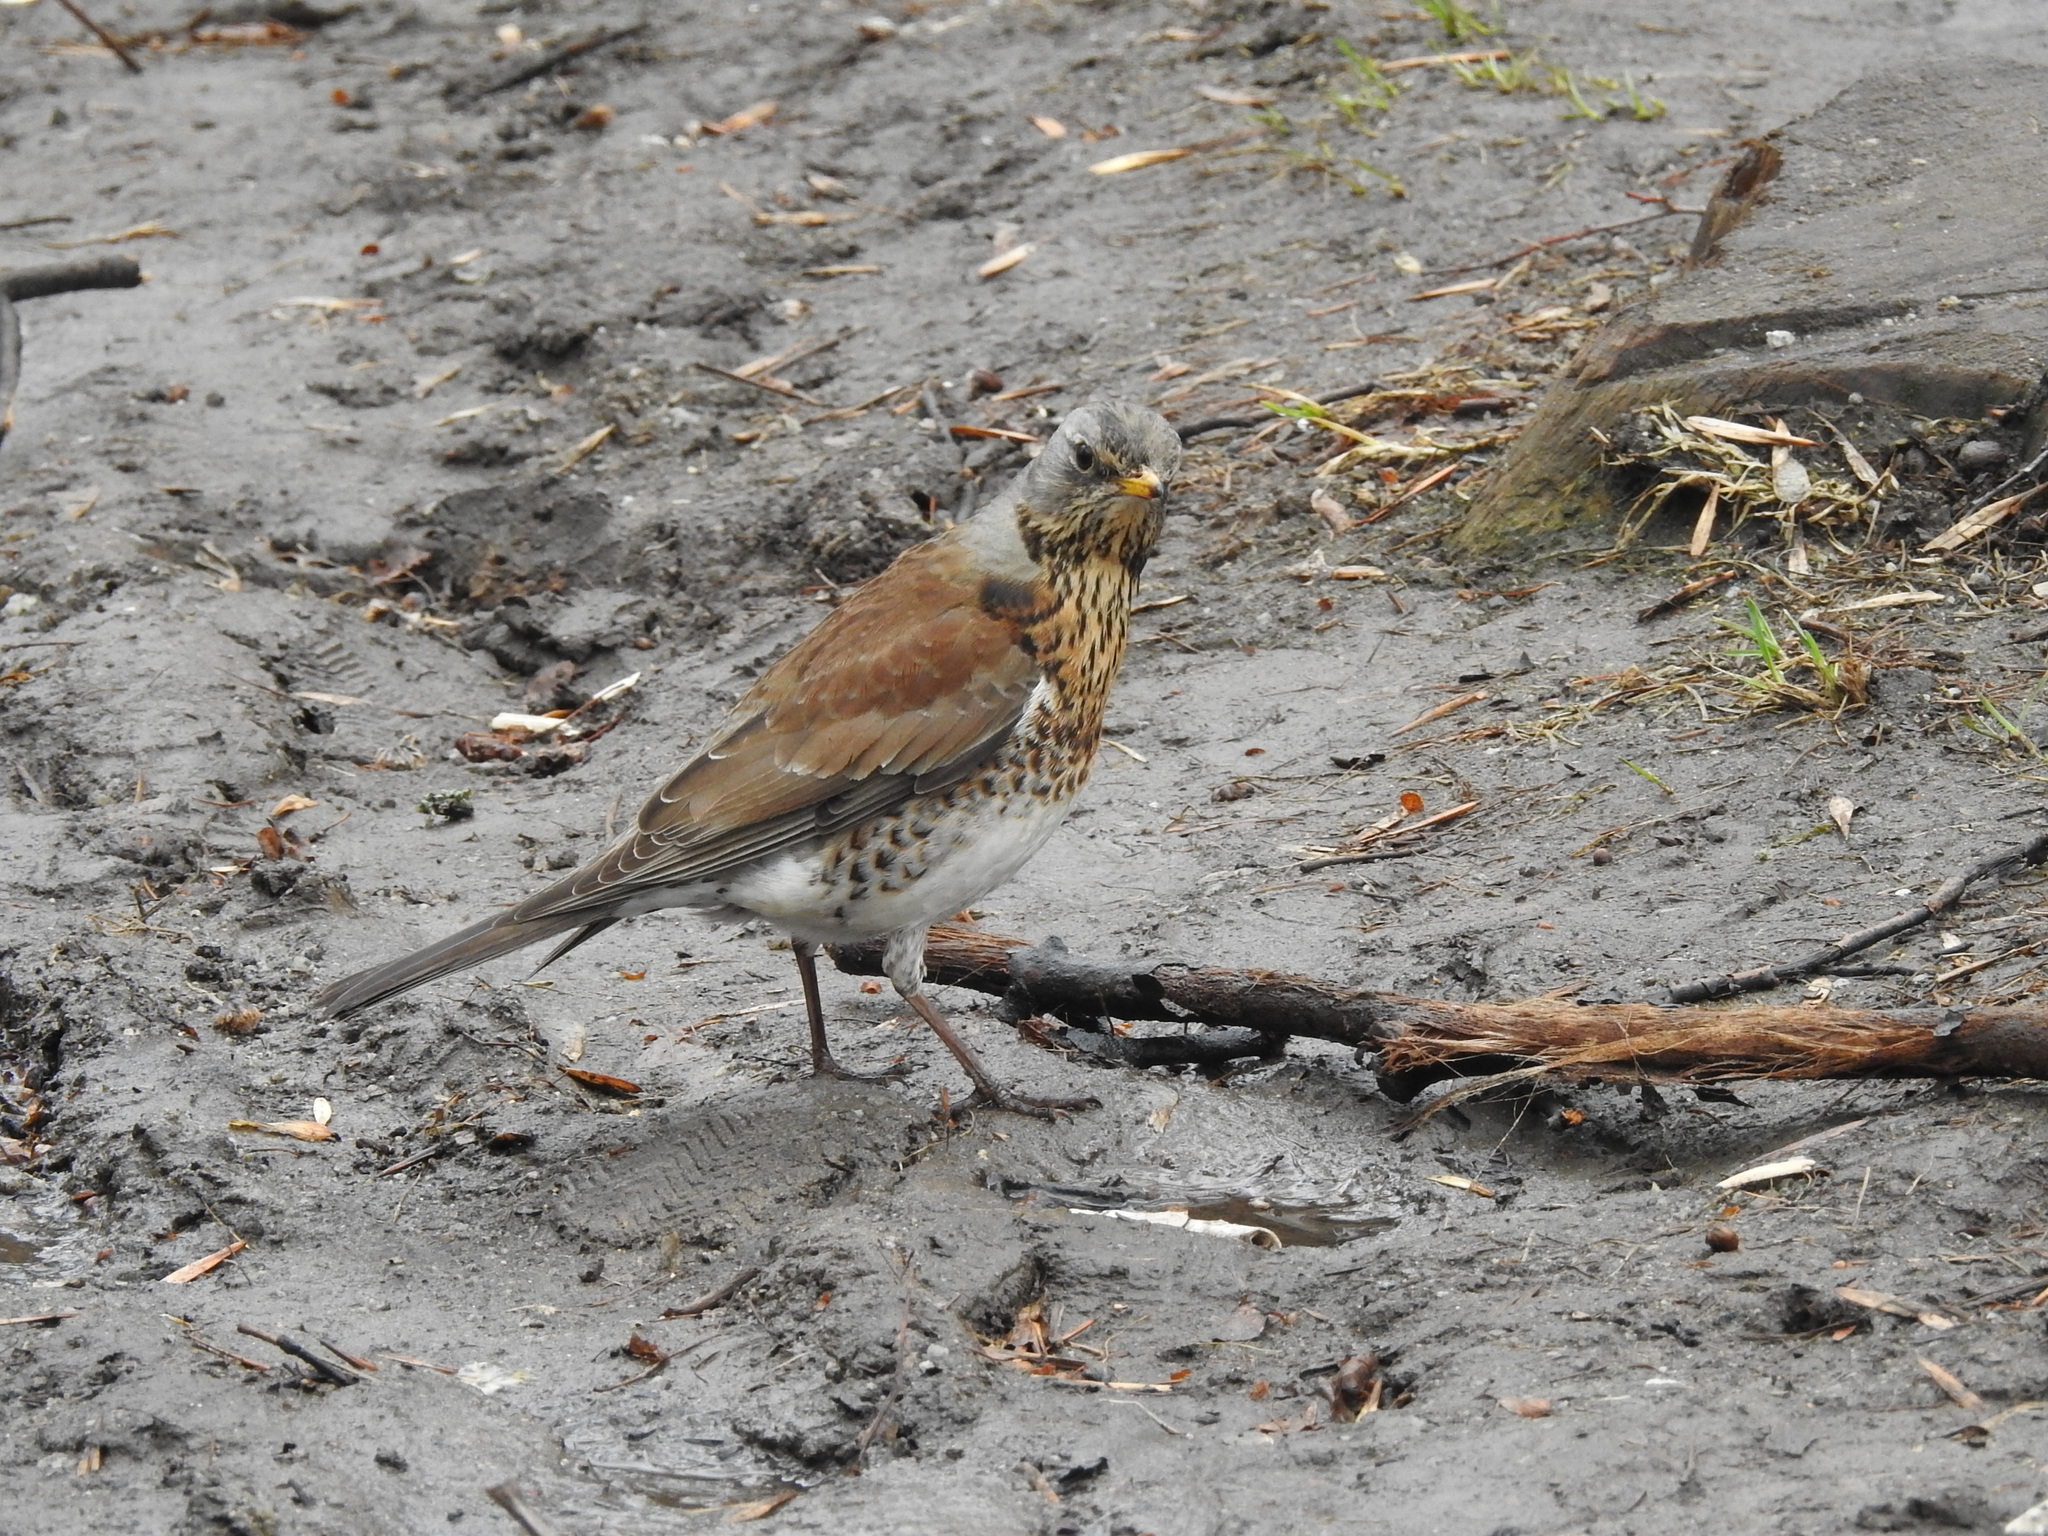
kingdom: Animalia
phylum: Chordata
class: Aves
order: Passeriformes
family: Turdidae
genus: Turdus
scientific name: Turdus pilaris
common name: Fieldfare
